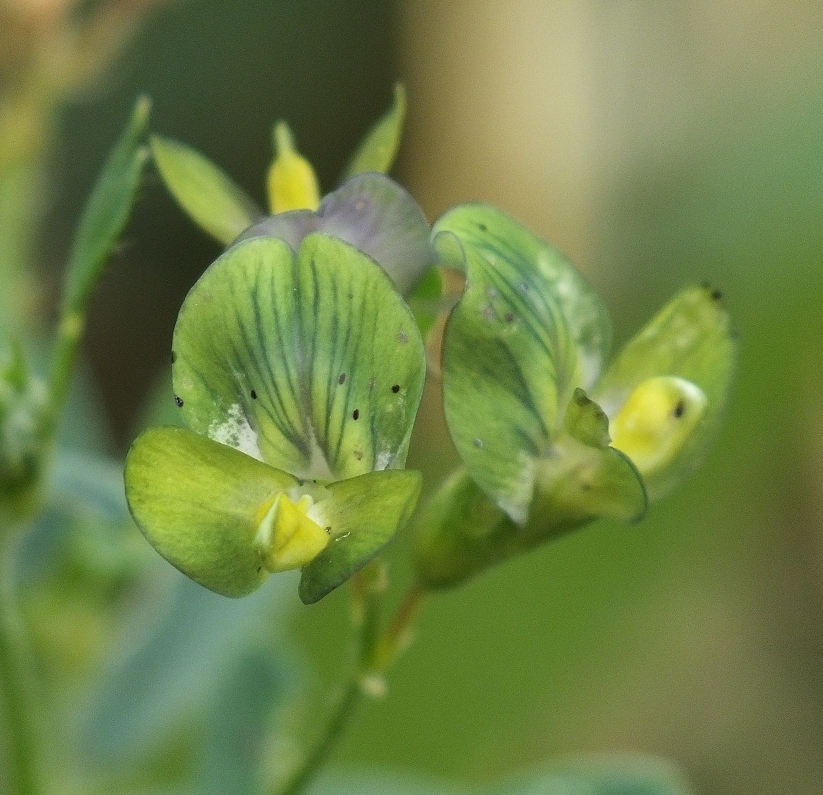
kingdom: Plantae
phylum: Tracheophyta
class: Magnoliopsida
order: Fabales
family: Fabaceae
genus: Medicago
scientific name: Medicago sativa
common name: Alfalfa
